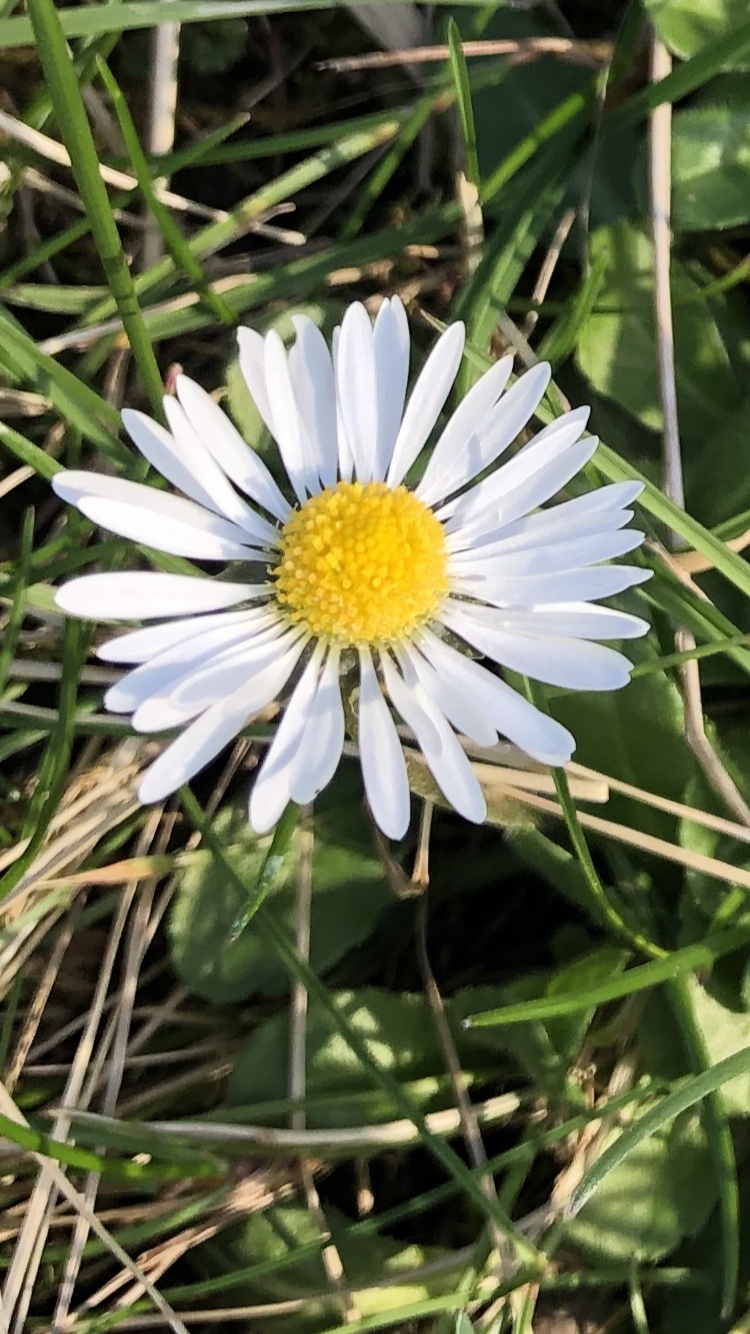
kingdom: Plantae
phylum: Tracheophyta
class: Magnoliopsida
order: Asterales
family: Asteraceae
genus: Bellis
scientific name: Bellis perennis
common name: Lawndaisy
